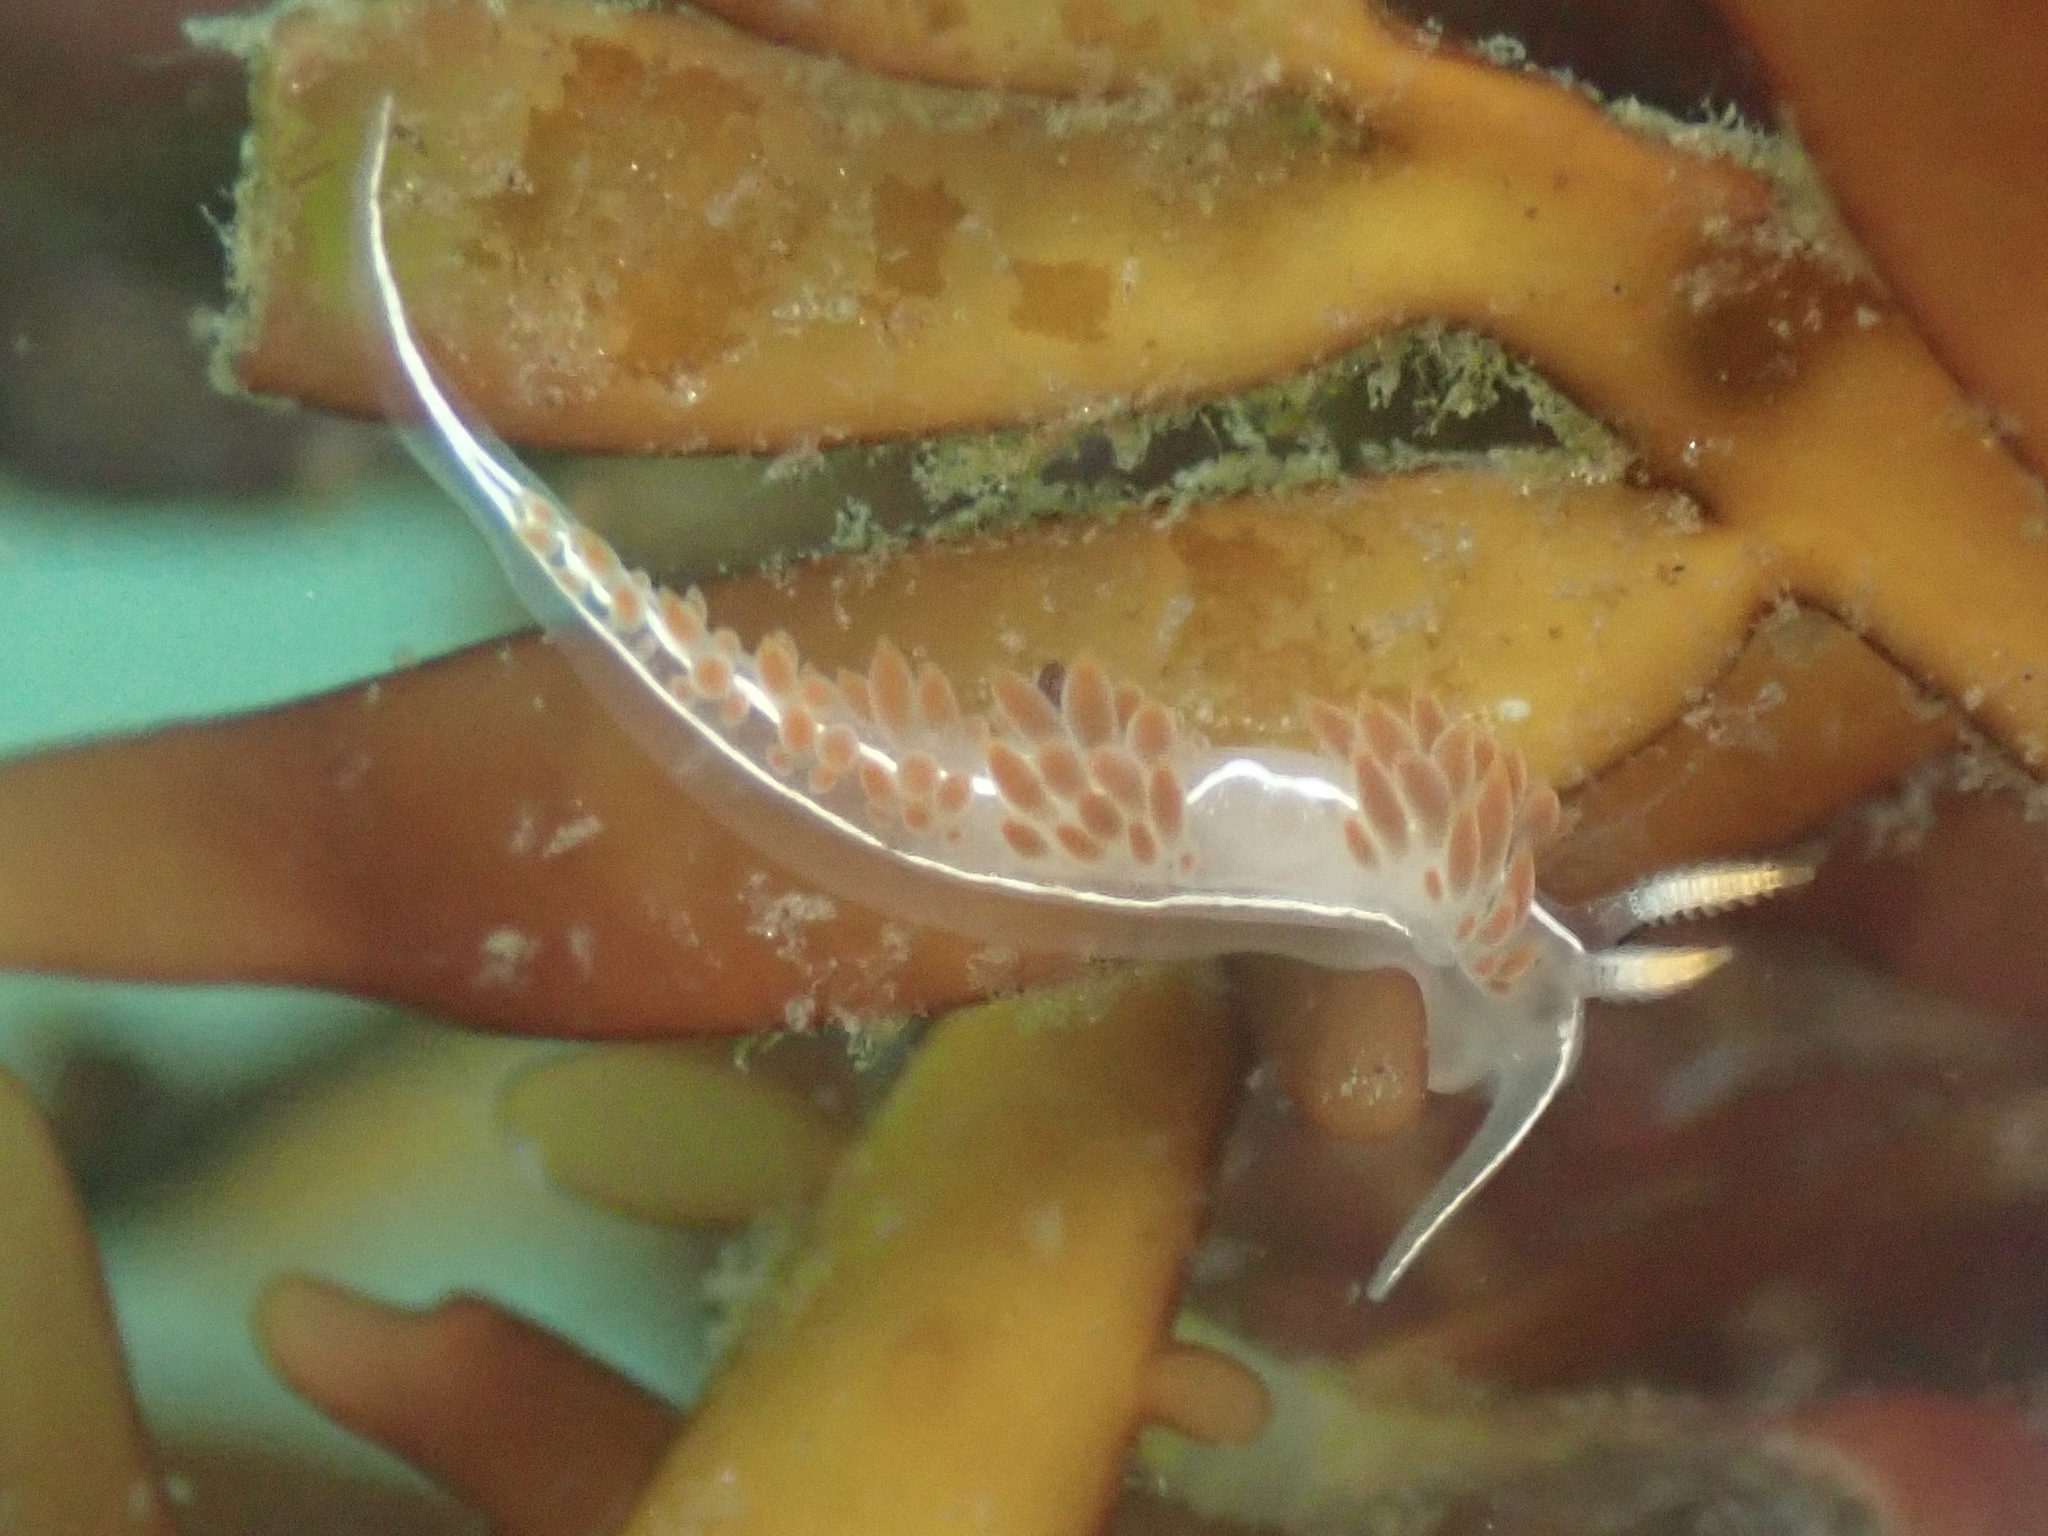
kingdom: Animalia
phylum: Mollusca
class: Gastropoda
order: Nudibranchia
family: Coryphellidae
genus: Coryphella
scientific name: Coryphella trilineata
